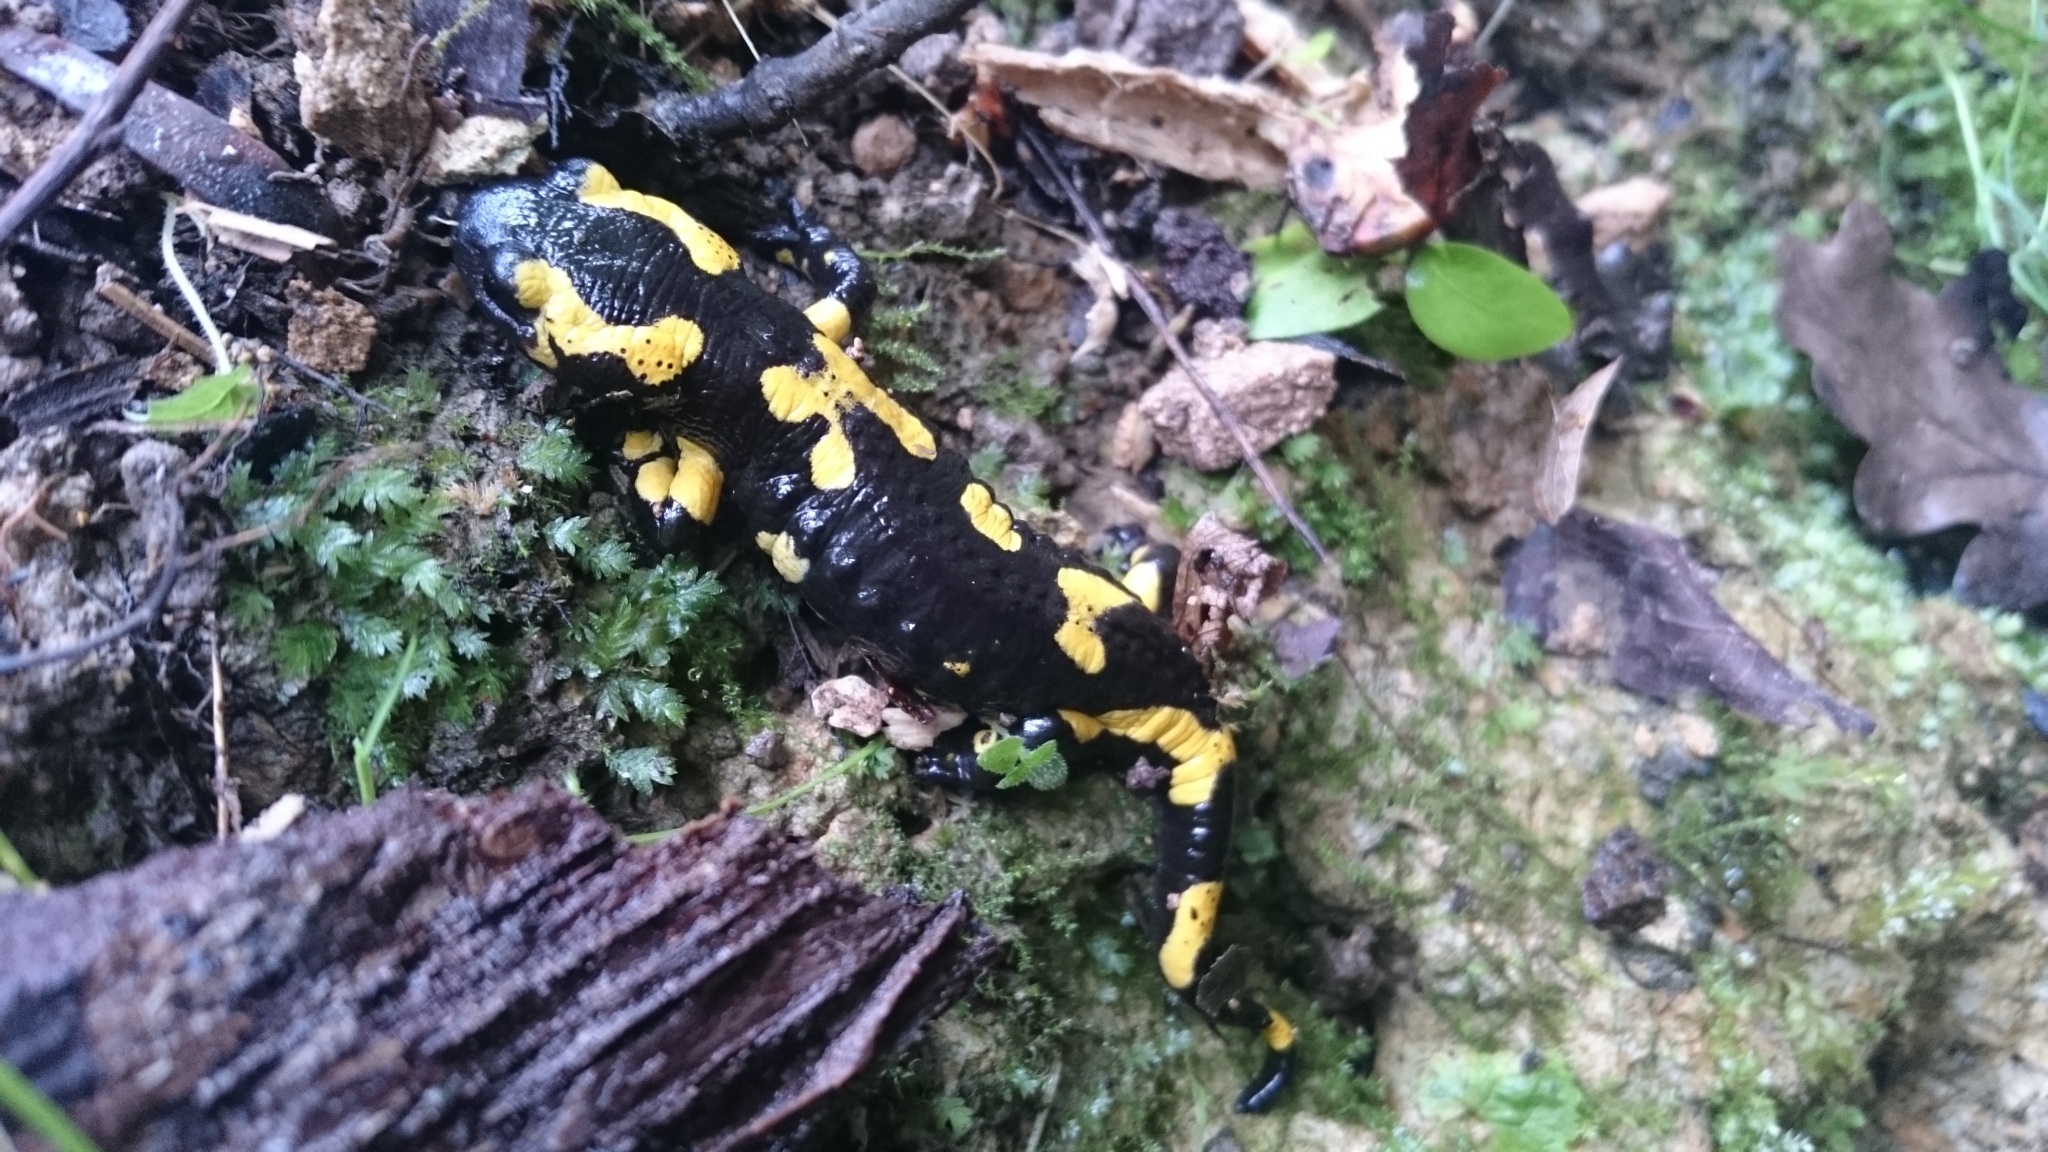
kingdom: Animalia
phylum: Chordata
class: Amphibia
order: Caudata
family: Salamandridae
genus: Salamandra
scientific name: Salamandra salamandra
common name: Fire salamander
